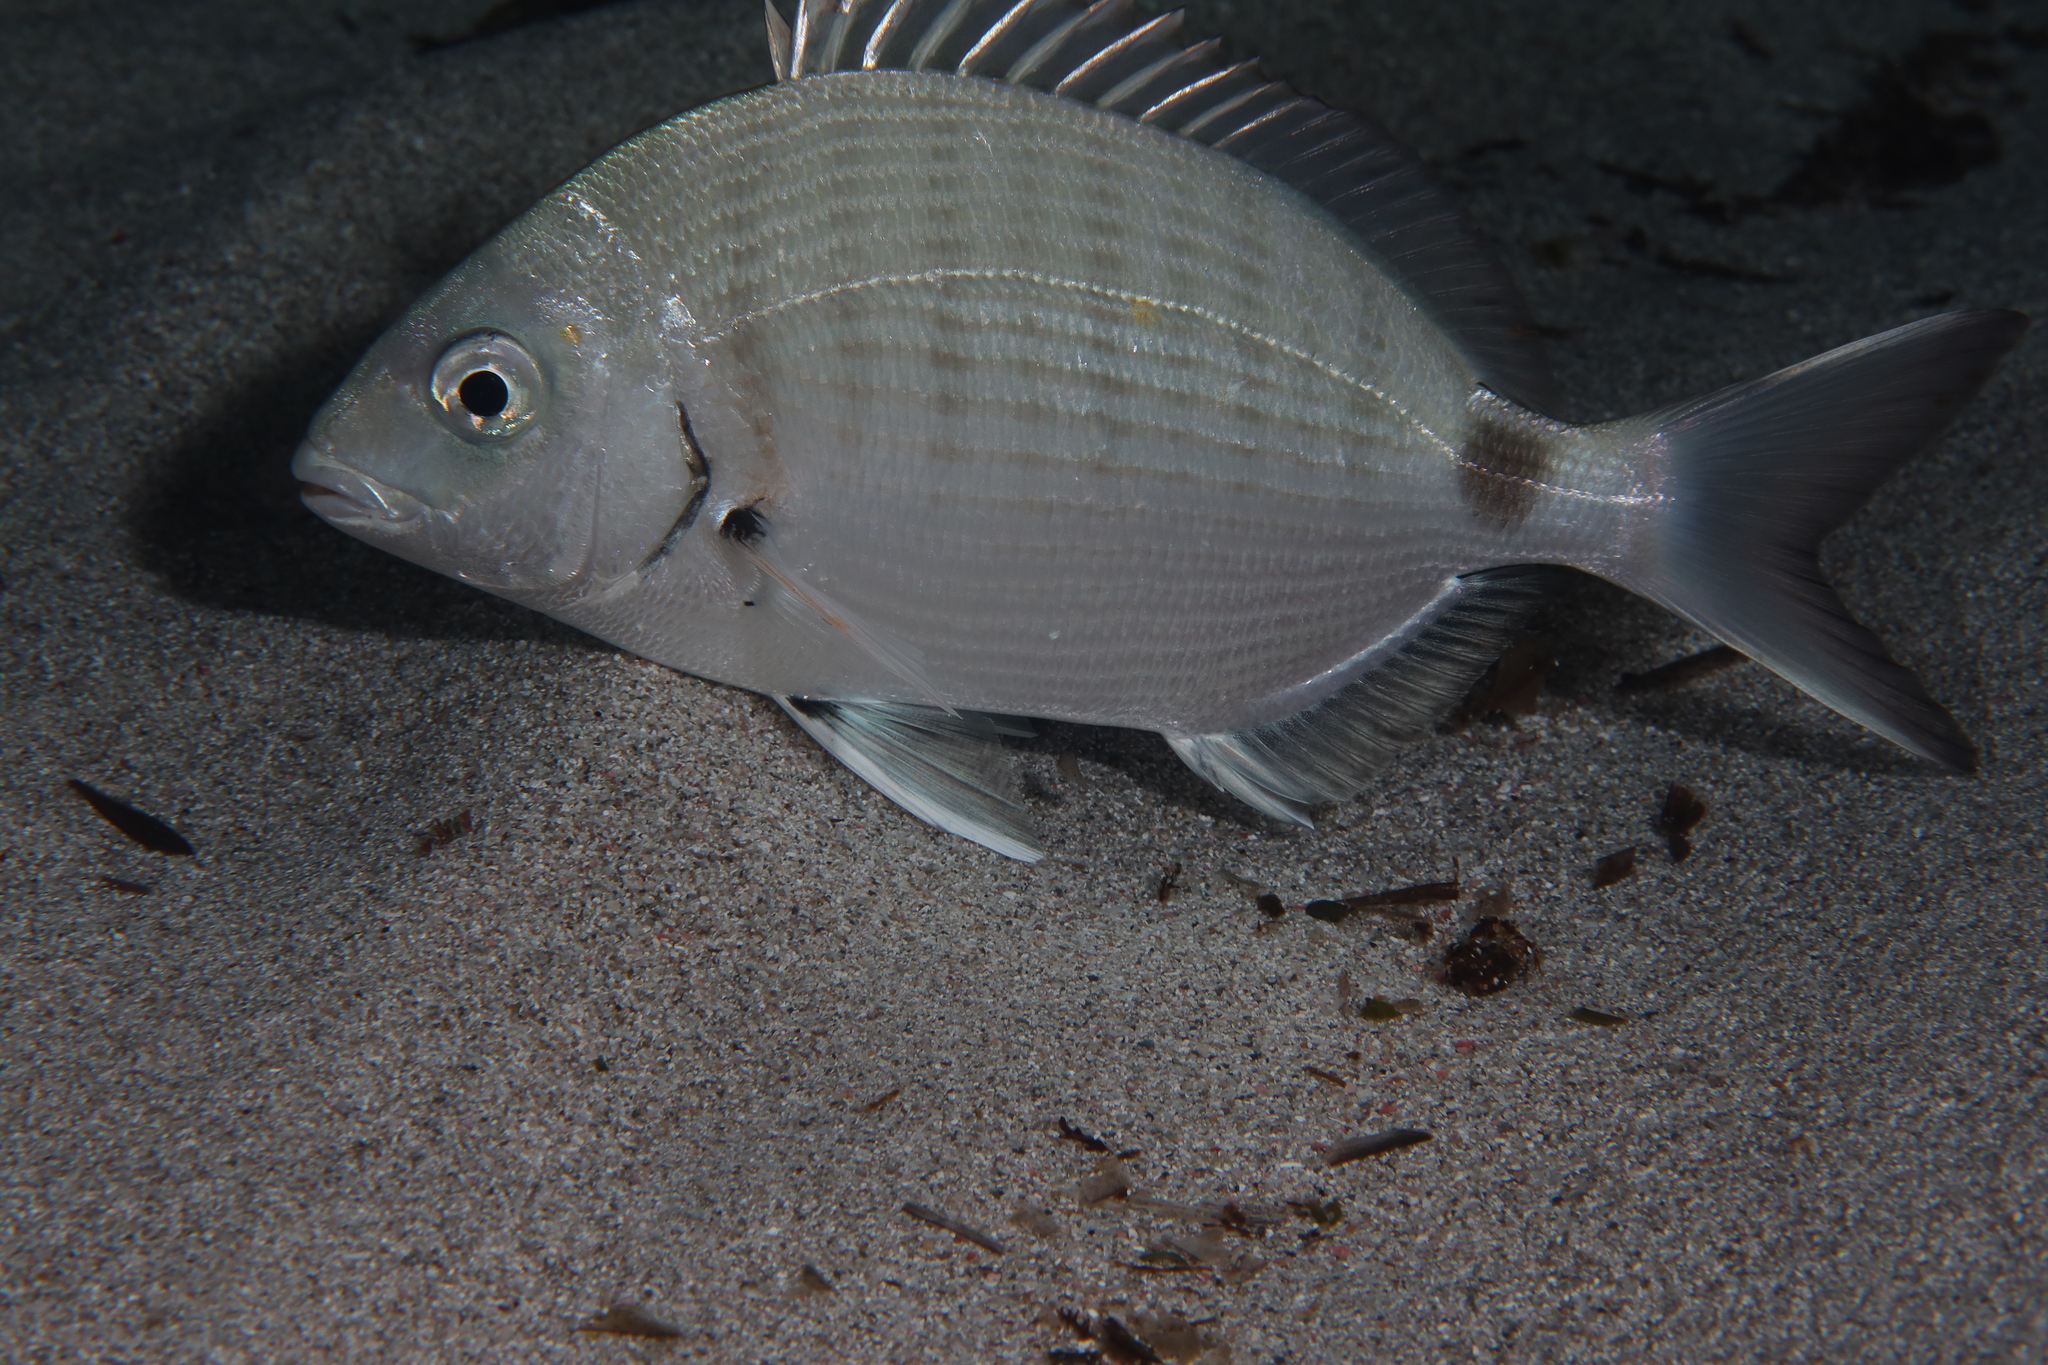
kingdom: Animalia
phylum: Chordata
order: Perciformes
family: Sparidae
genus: Diplodus
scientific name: Diplodus sargus
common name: White seabream
